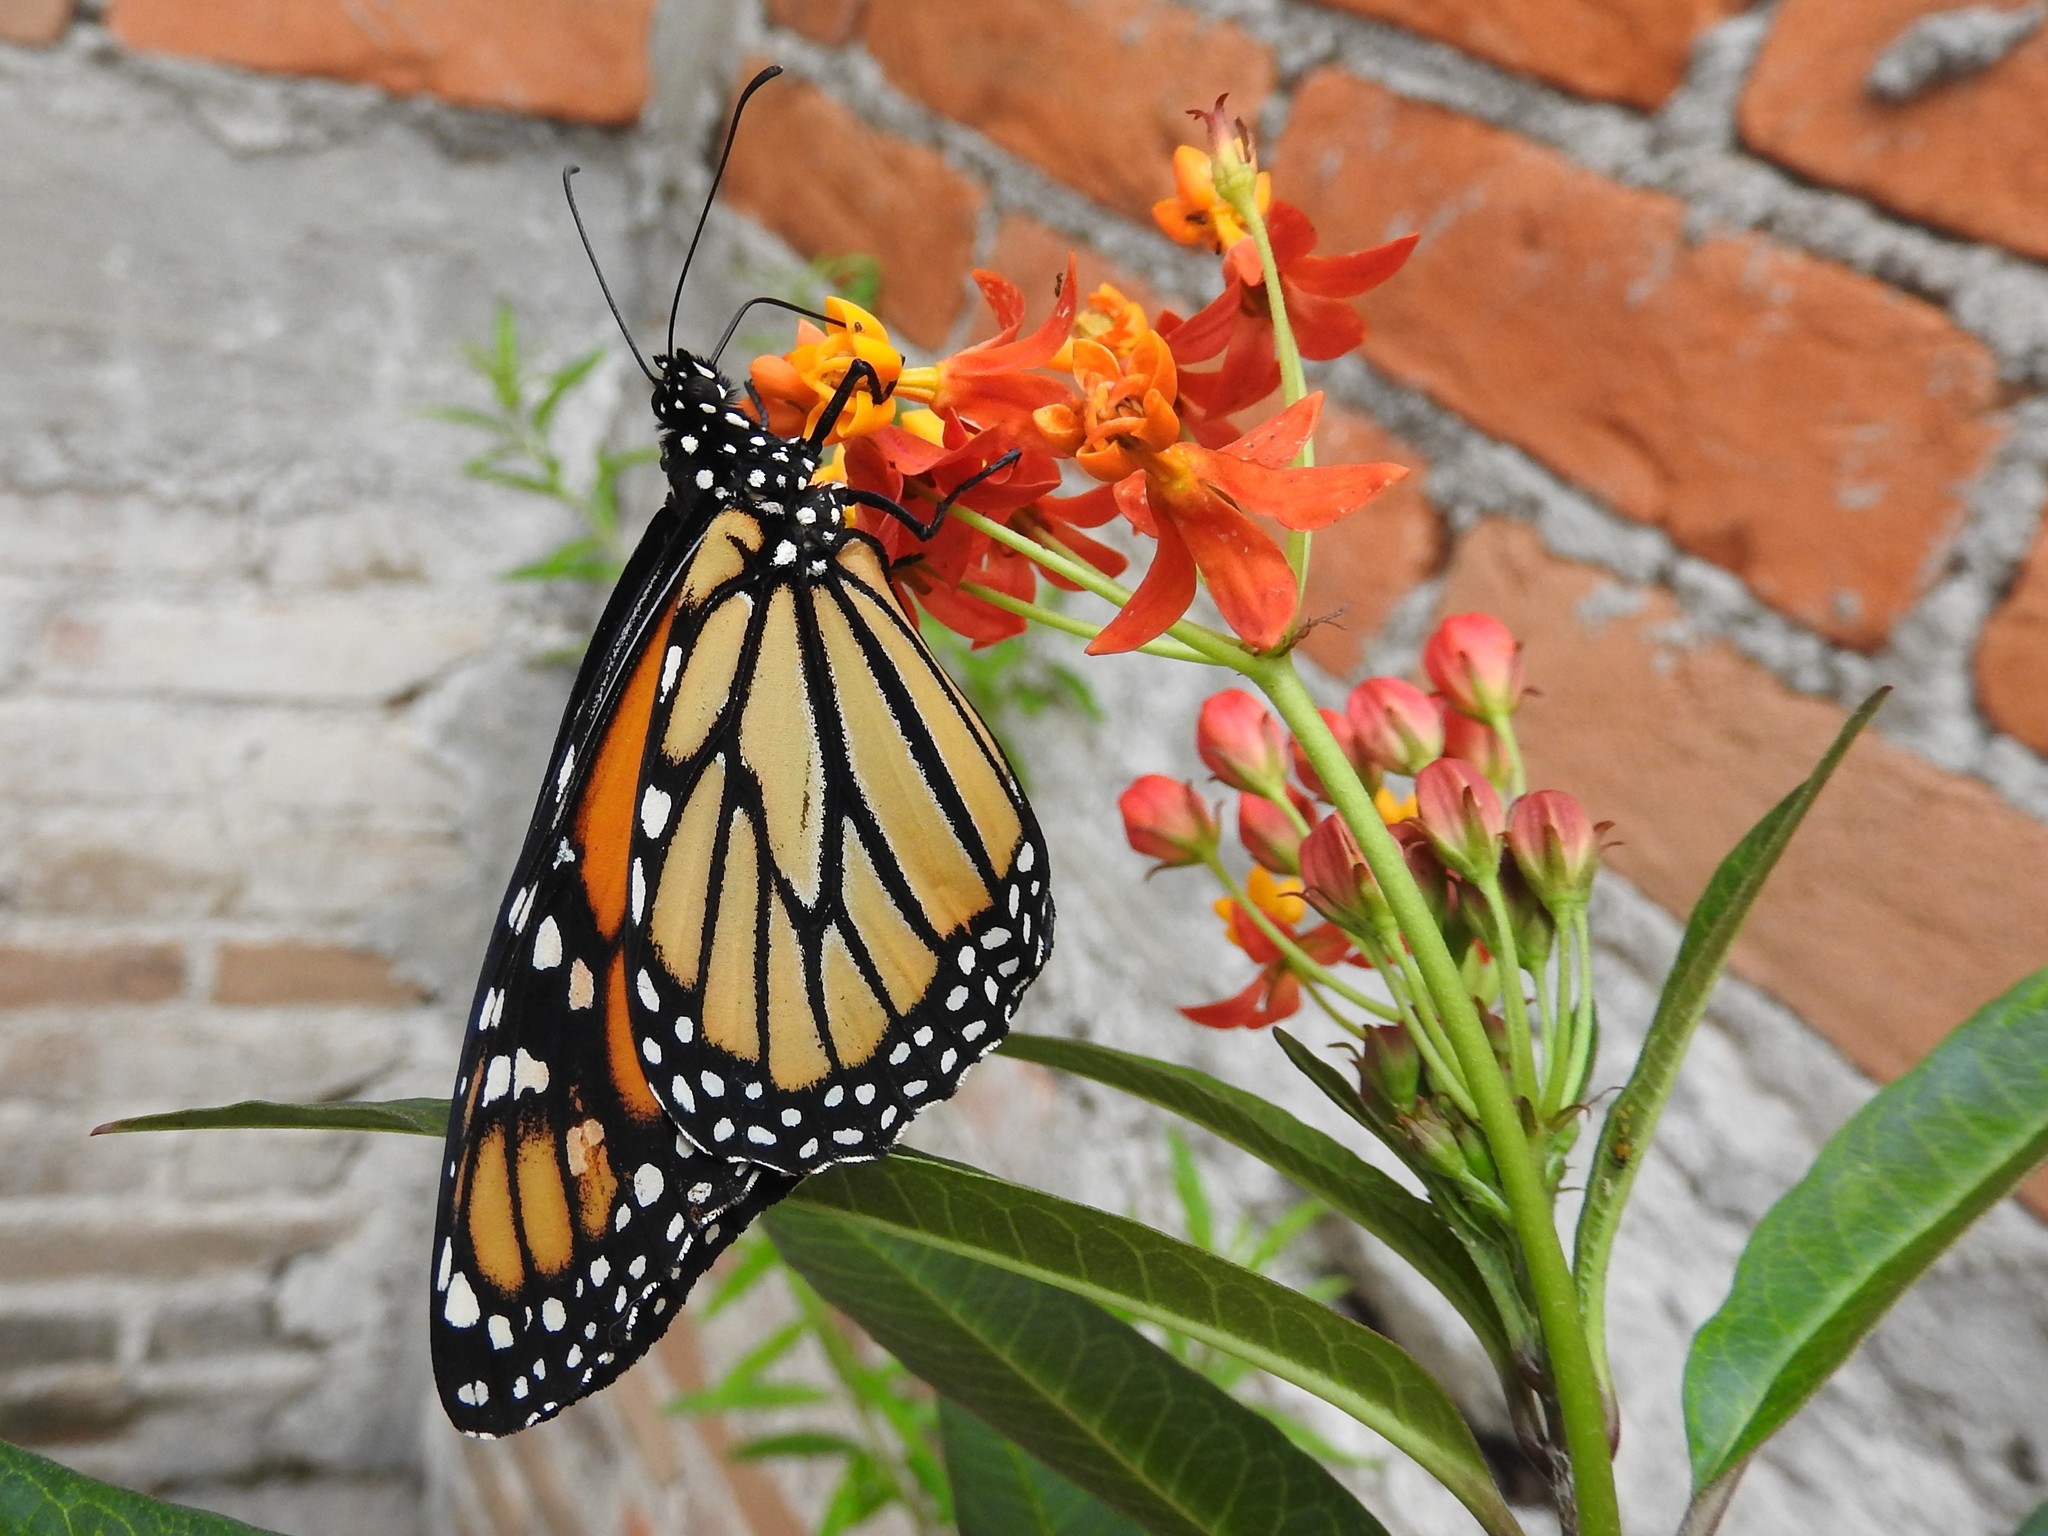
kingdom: Animalia
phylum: Arthropoda
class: Insecta
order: Lepidoptera
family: Nymphalidae
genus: Danaus
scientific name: Danaus plexippus
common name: Monarch
